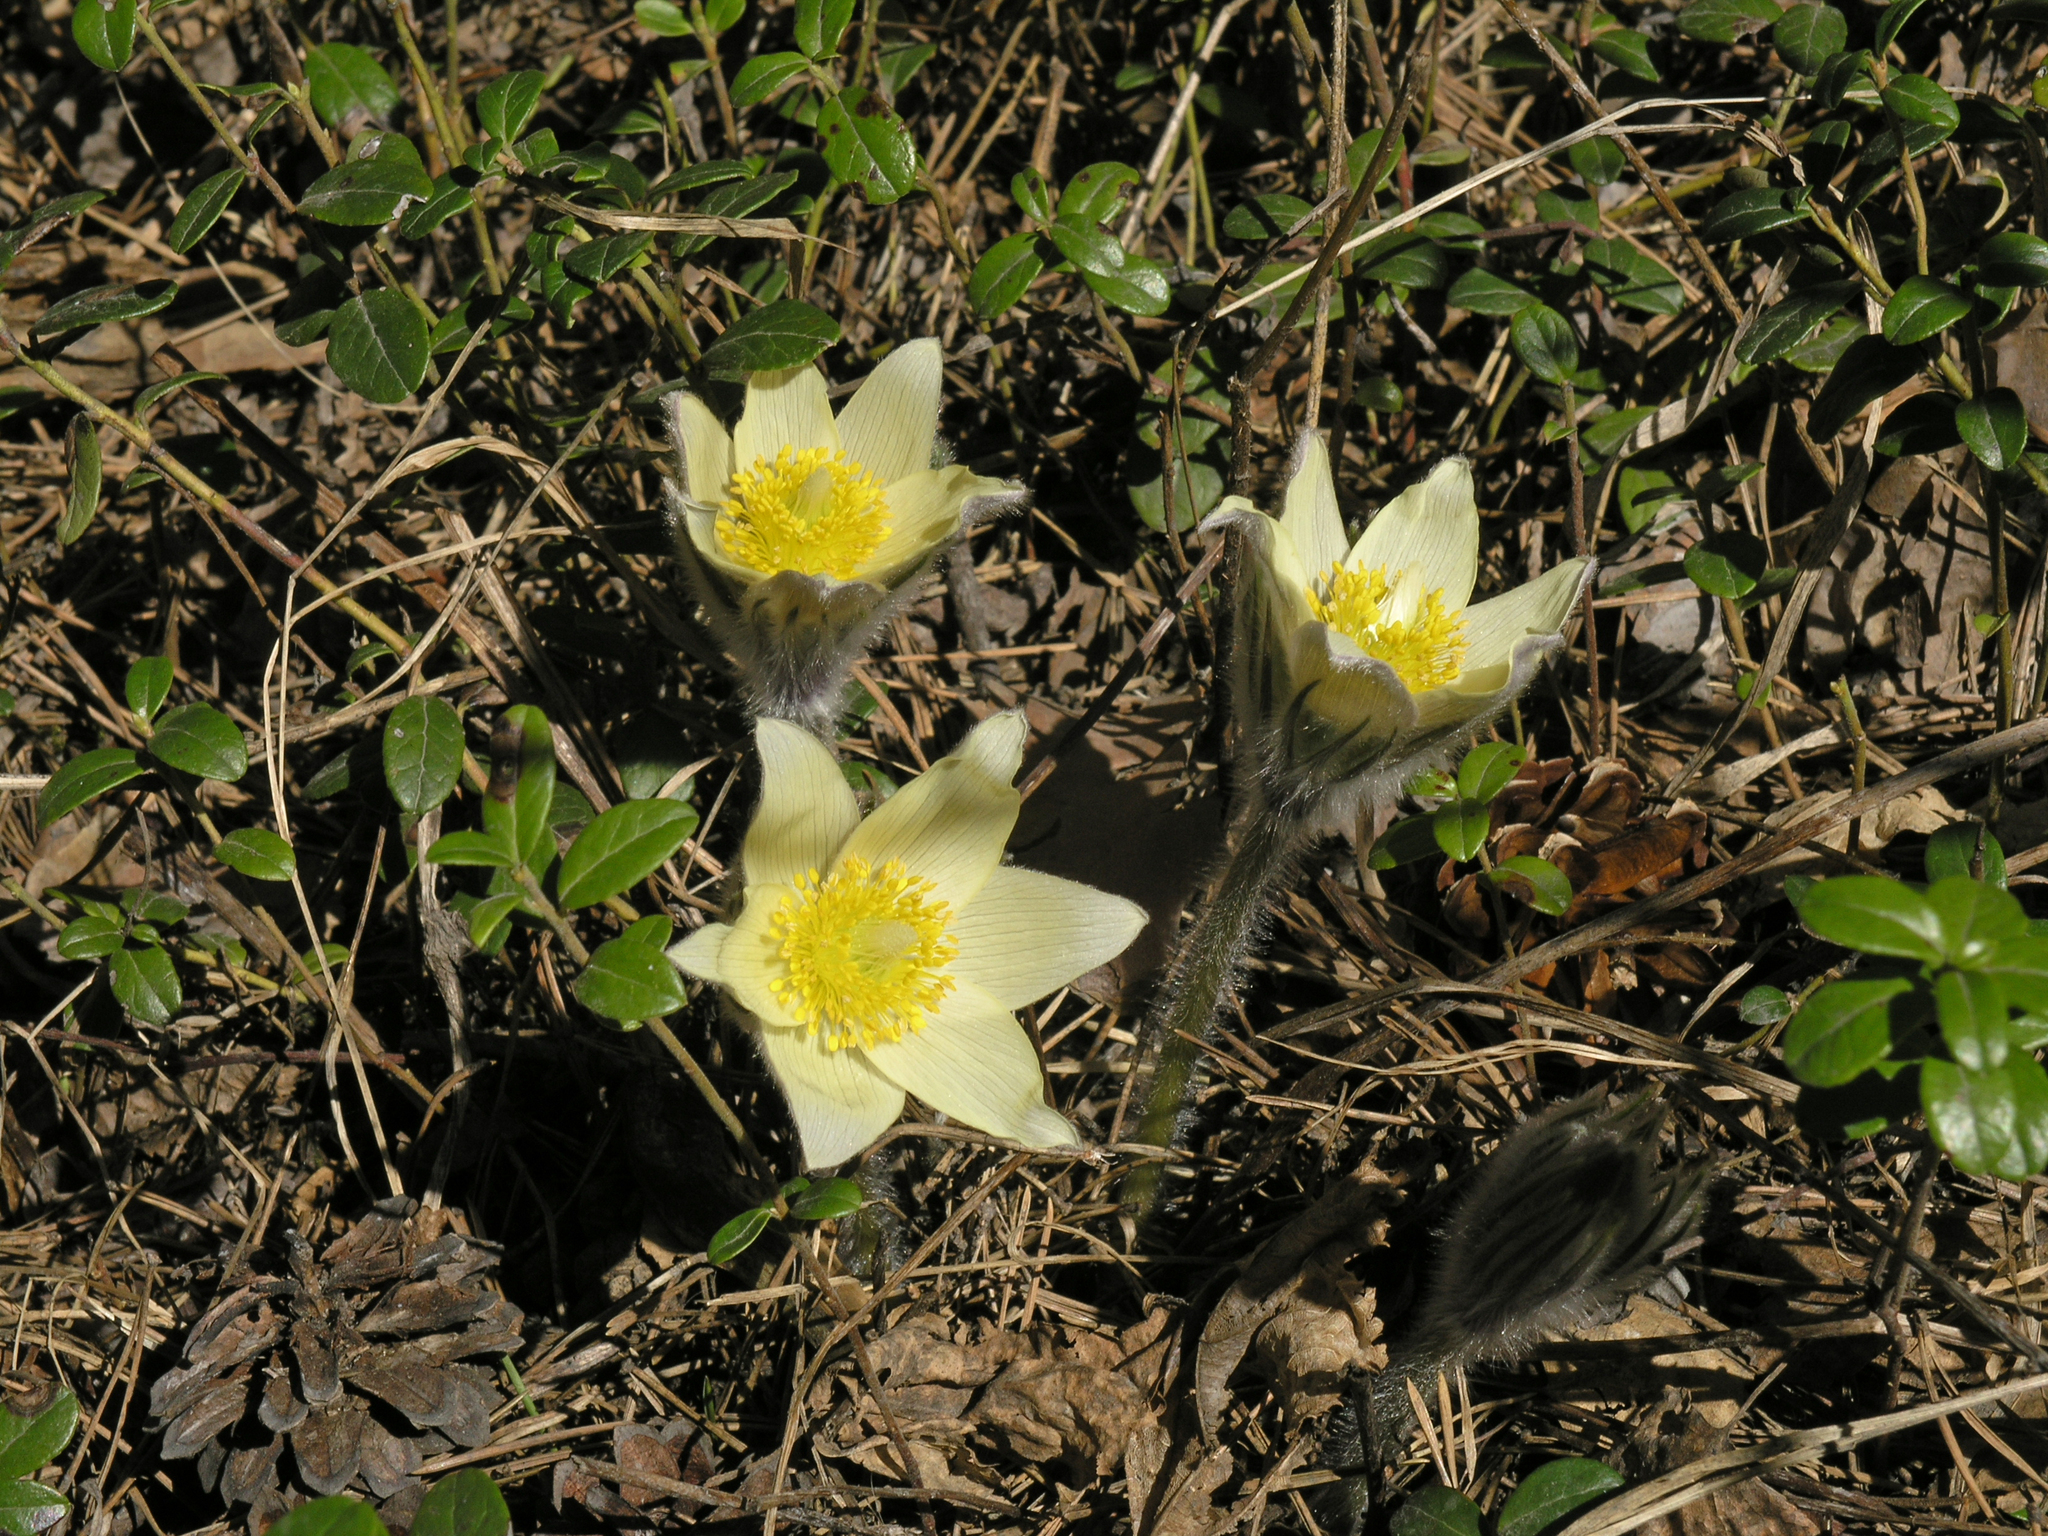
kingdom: Plantae
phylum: Tracheophyta
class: Magnoliopsida
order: Ranunculales
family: Ranunculaceae
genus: Pulsatilla
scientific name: Pulsatilla patens
